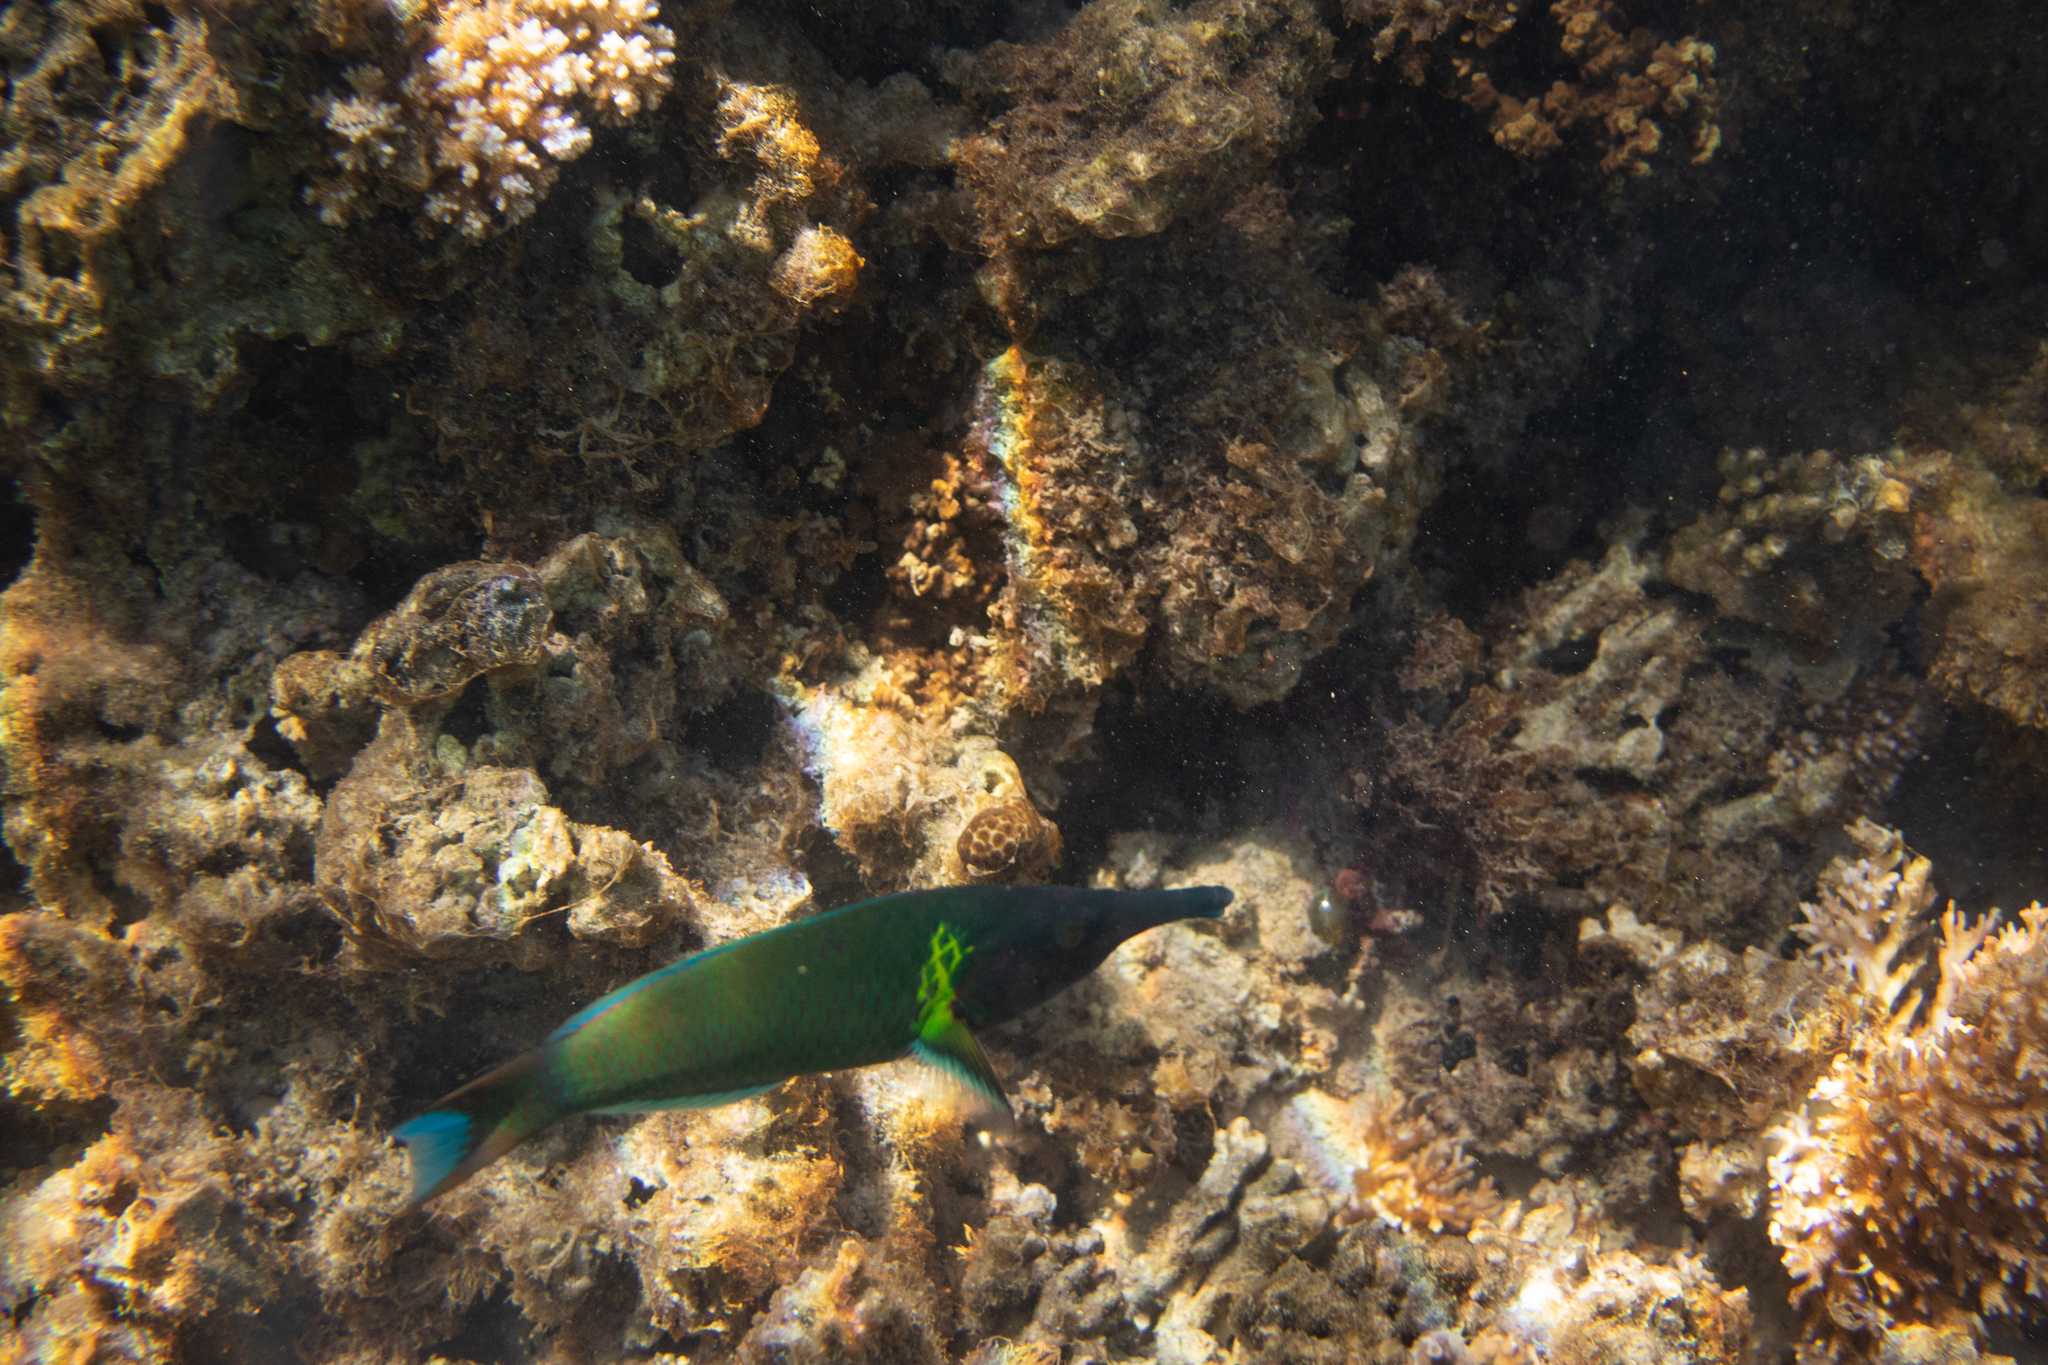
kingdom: Animalia
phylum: Chordata
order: Perciformes
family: Labridae
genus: Gomphosus
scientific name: Gomphosus varius
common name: Bird wrasse
